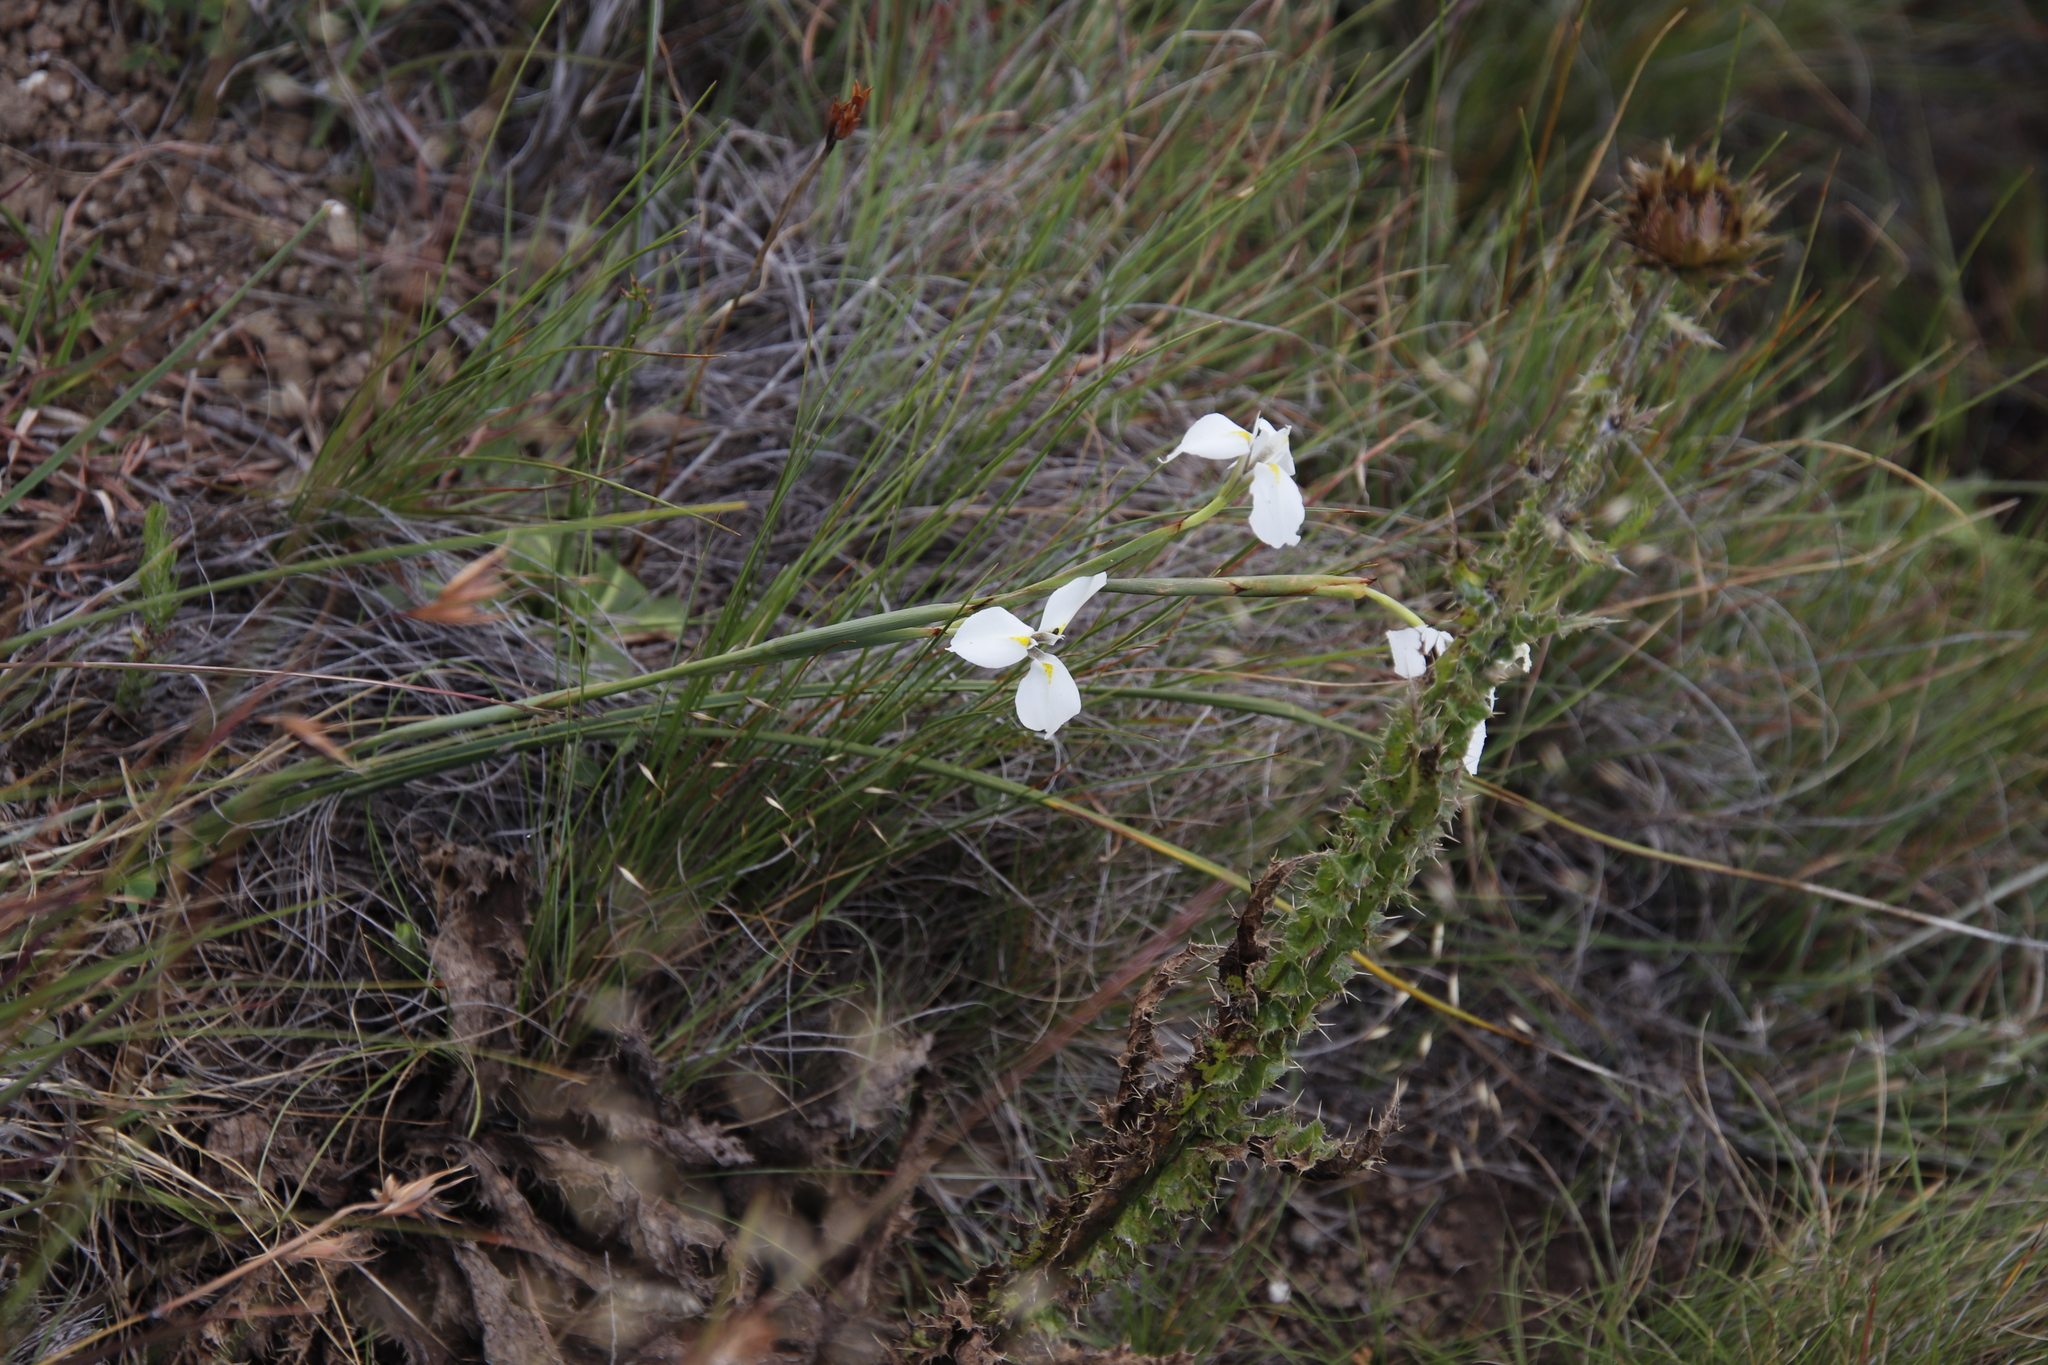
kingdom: Plantae
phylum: Tracheophyta
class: Liliopsida
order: Asparagales
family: Iridaceae
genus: Moraea
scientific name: Moraea albicuspa
